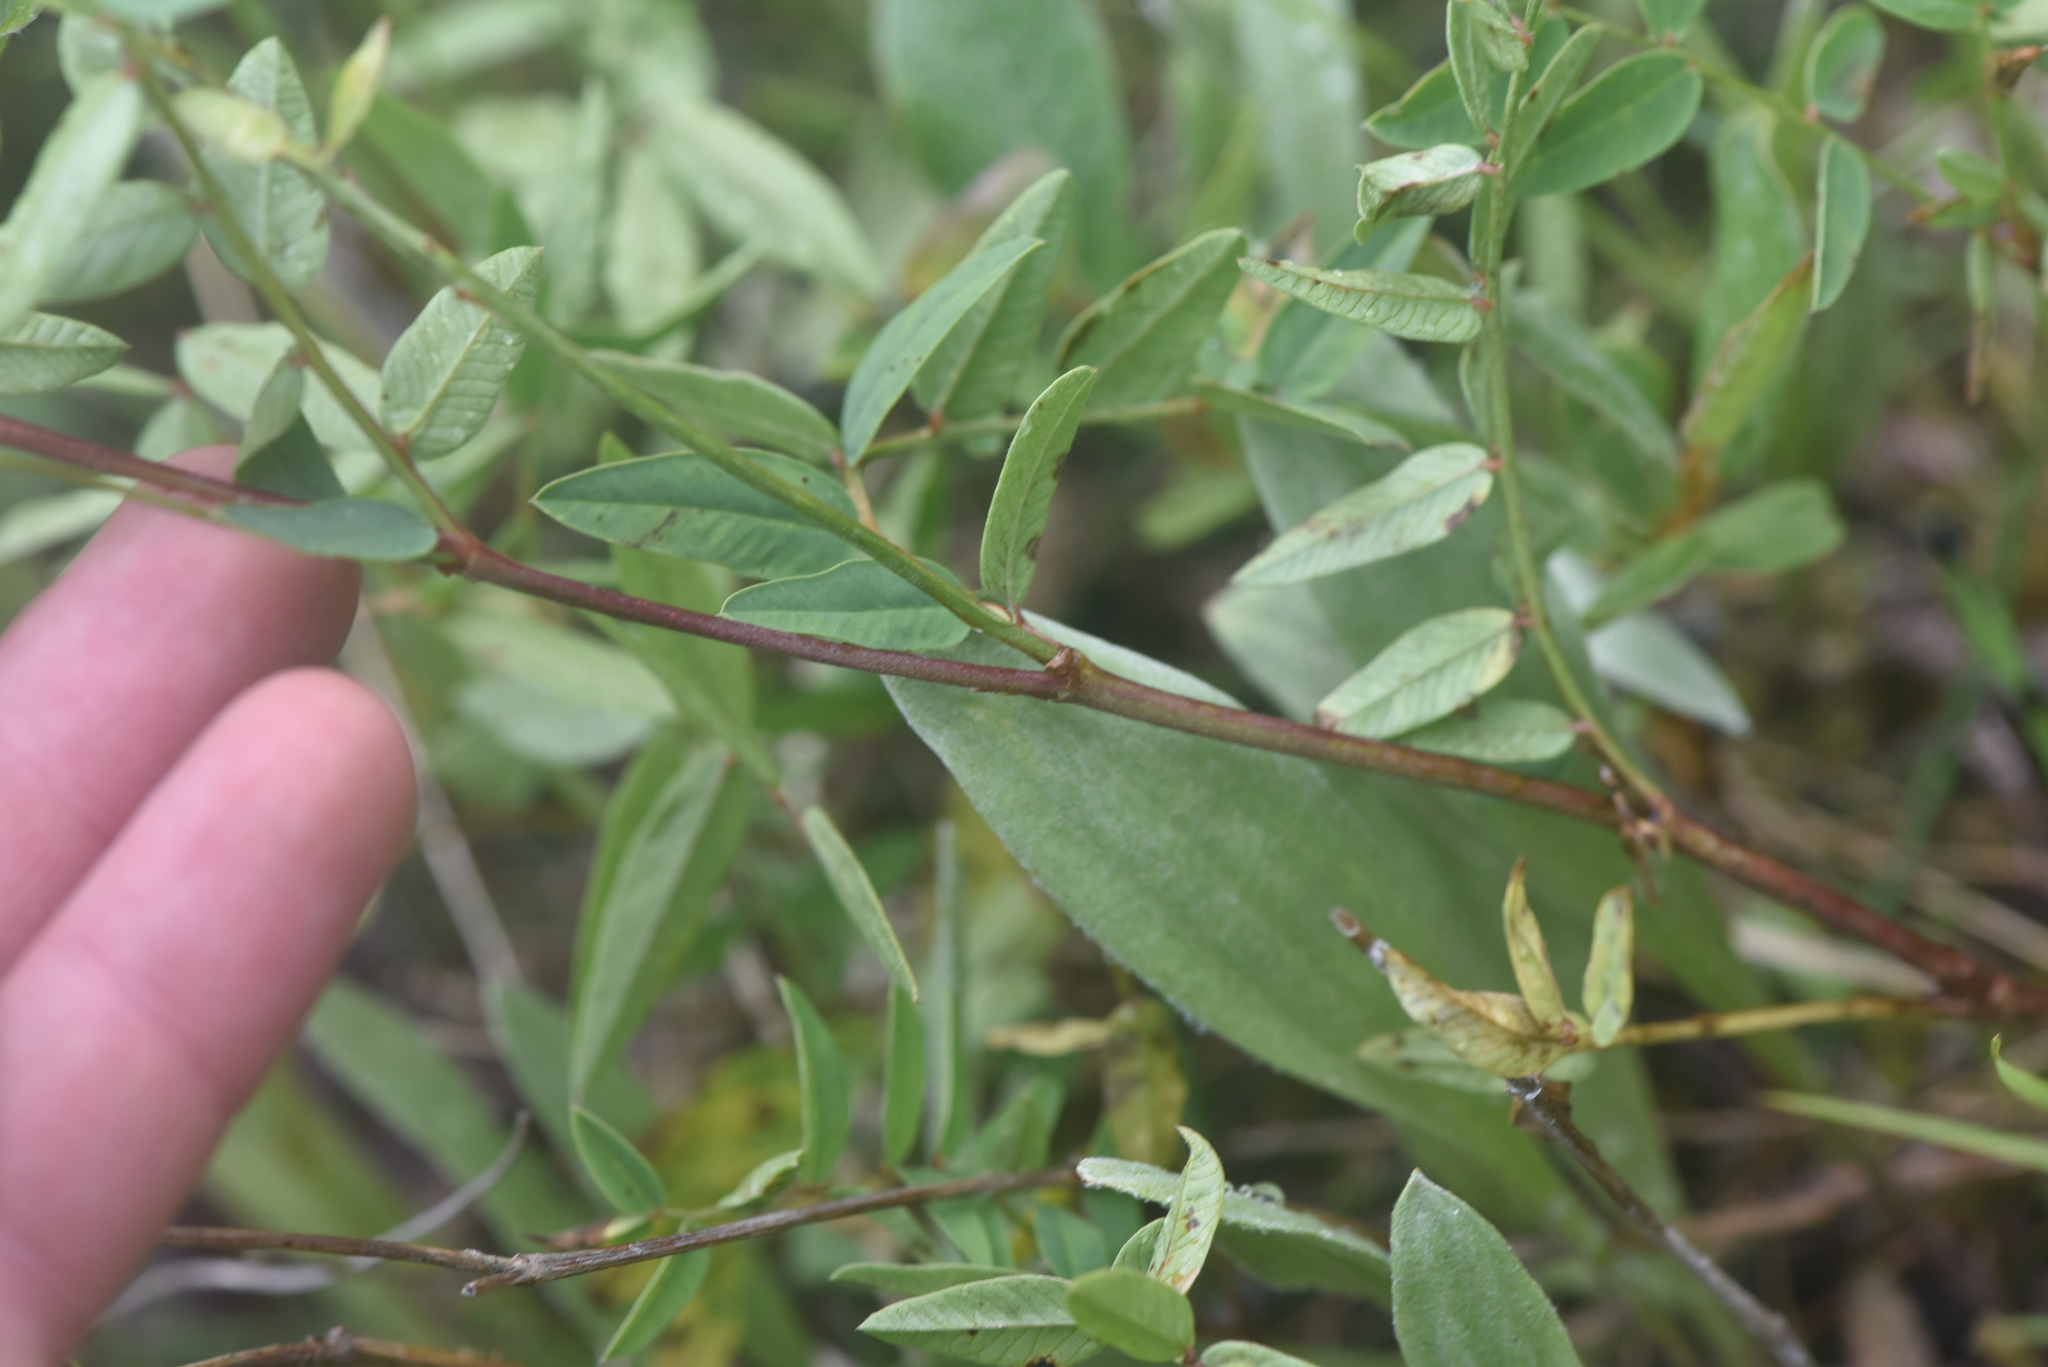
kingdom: Plantae
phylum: Tracheophyta
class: Magnoliopsida
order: Fabales
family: Fabaceae
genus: Hedysarum
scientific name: Hedysarum
